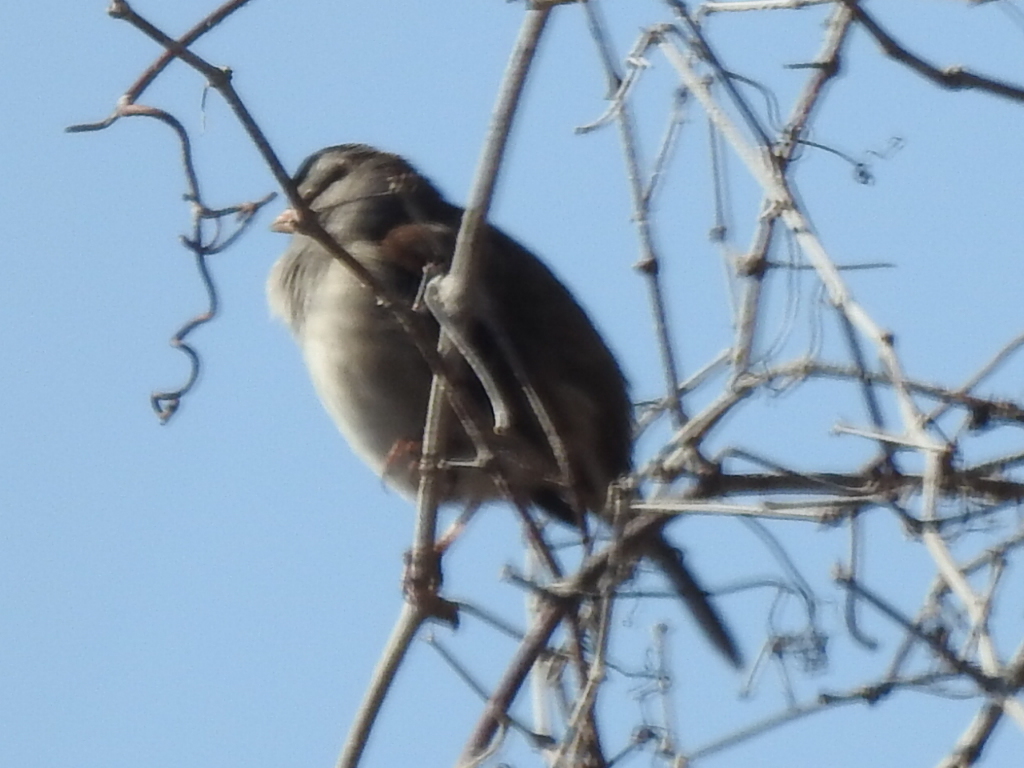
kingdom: Animalia
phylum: Chordata
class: Aves
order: Passeriformes
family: Passerellidae
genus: Zonotrichia
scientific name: Zonotrichia leucophrys
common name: White-crowned sparrow
